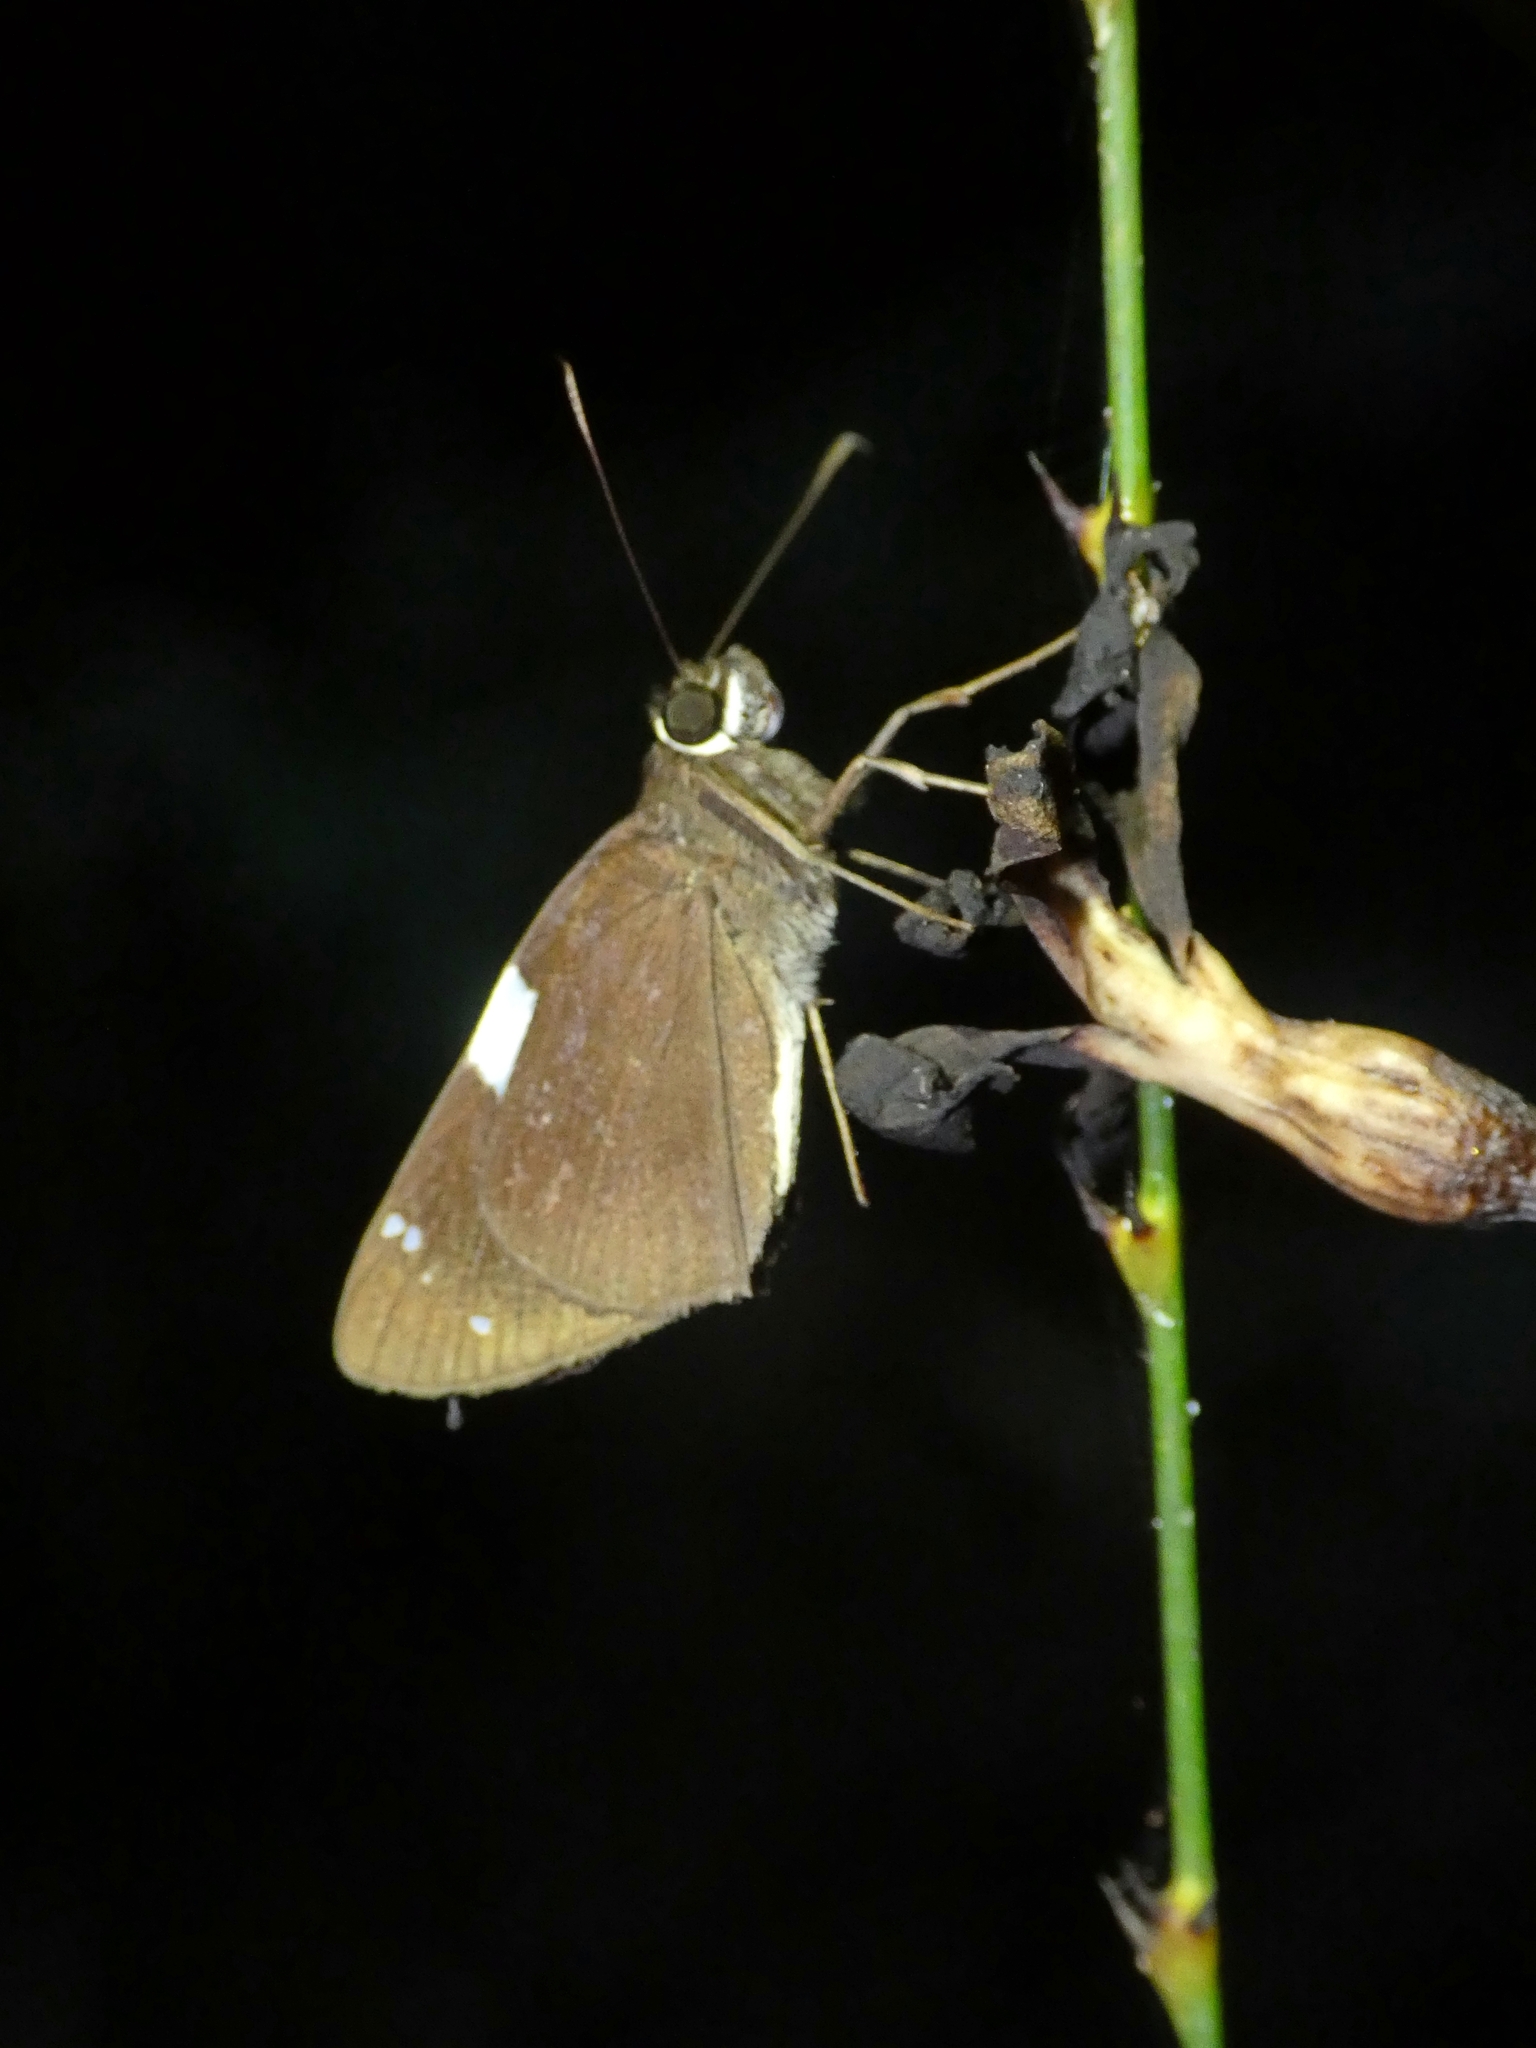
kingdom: Animalia
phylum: Arthropoda
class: Insecta
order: Lepidoptera
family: Hesperiidae
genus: Notocrypta
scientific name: Notocrypta waigensis
